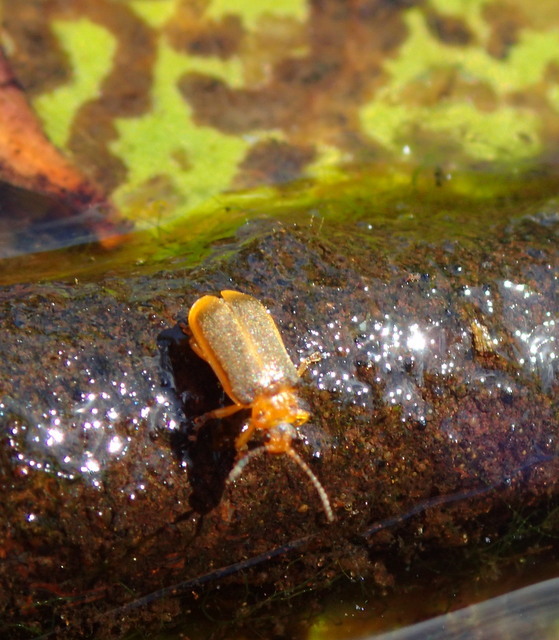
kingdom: Animalia
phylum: Arthropoda
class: Insecta
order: Coleoptera
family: Chrysomelidae
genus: Galerucella
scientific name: Galerucella nymphaeae
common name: Leaf beetle
